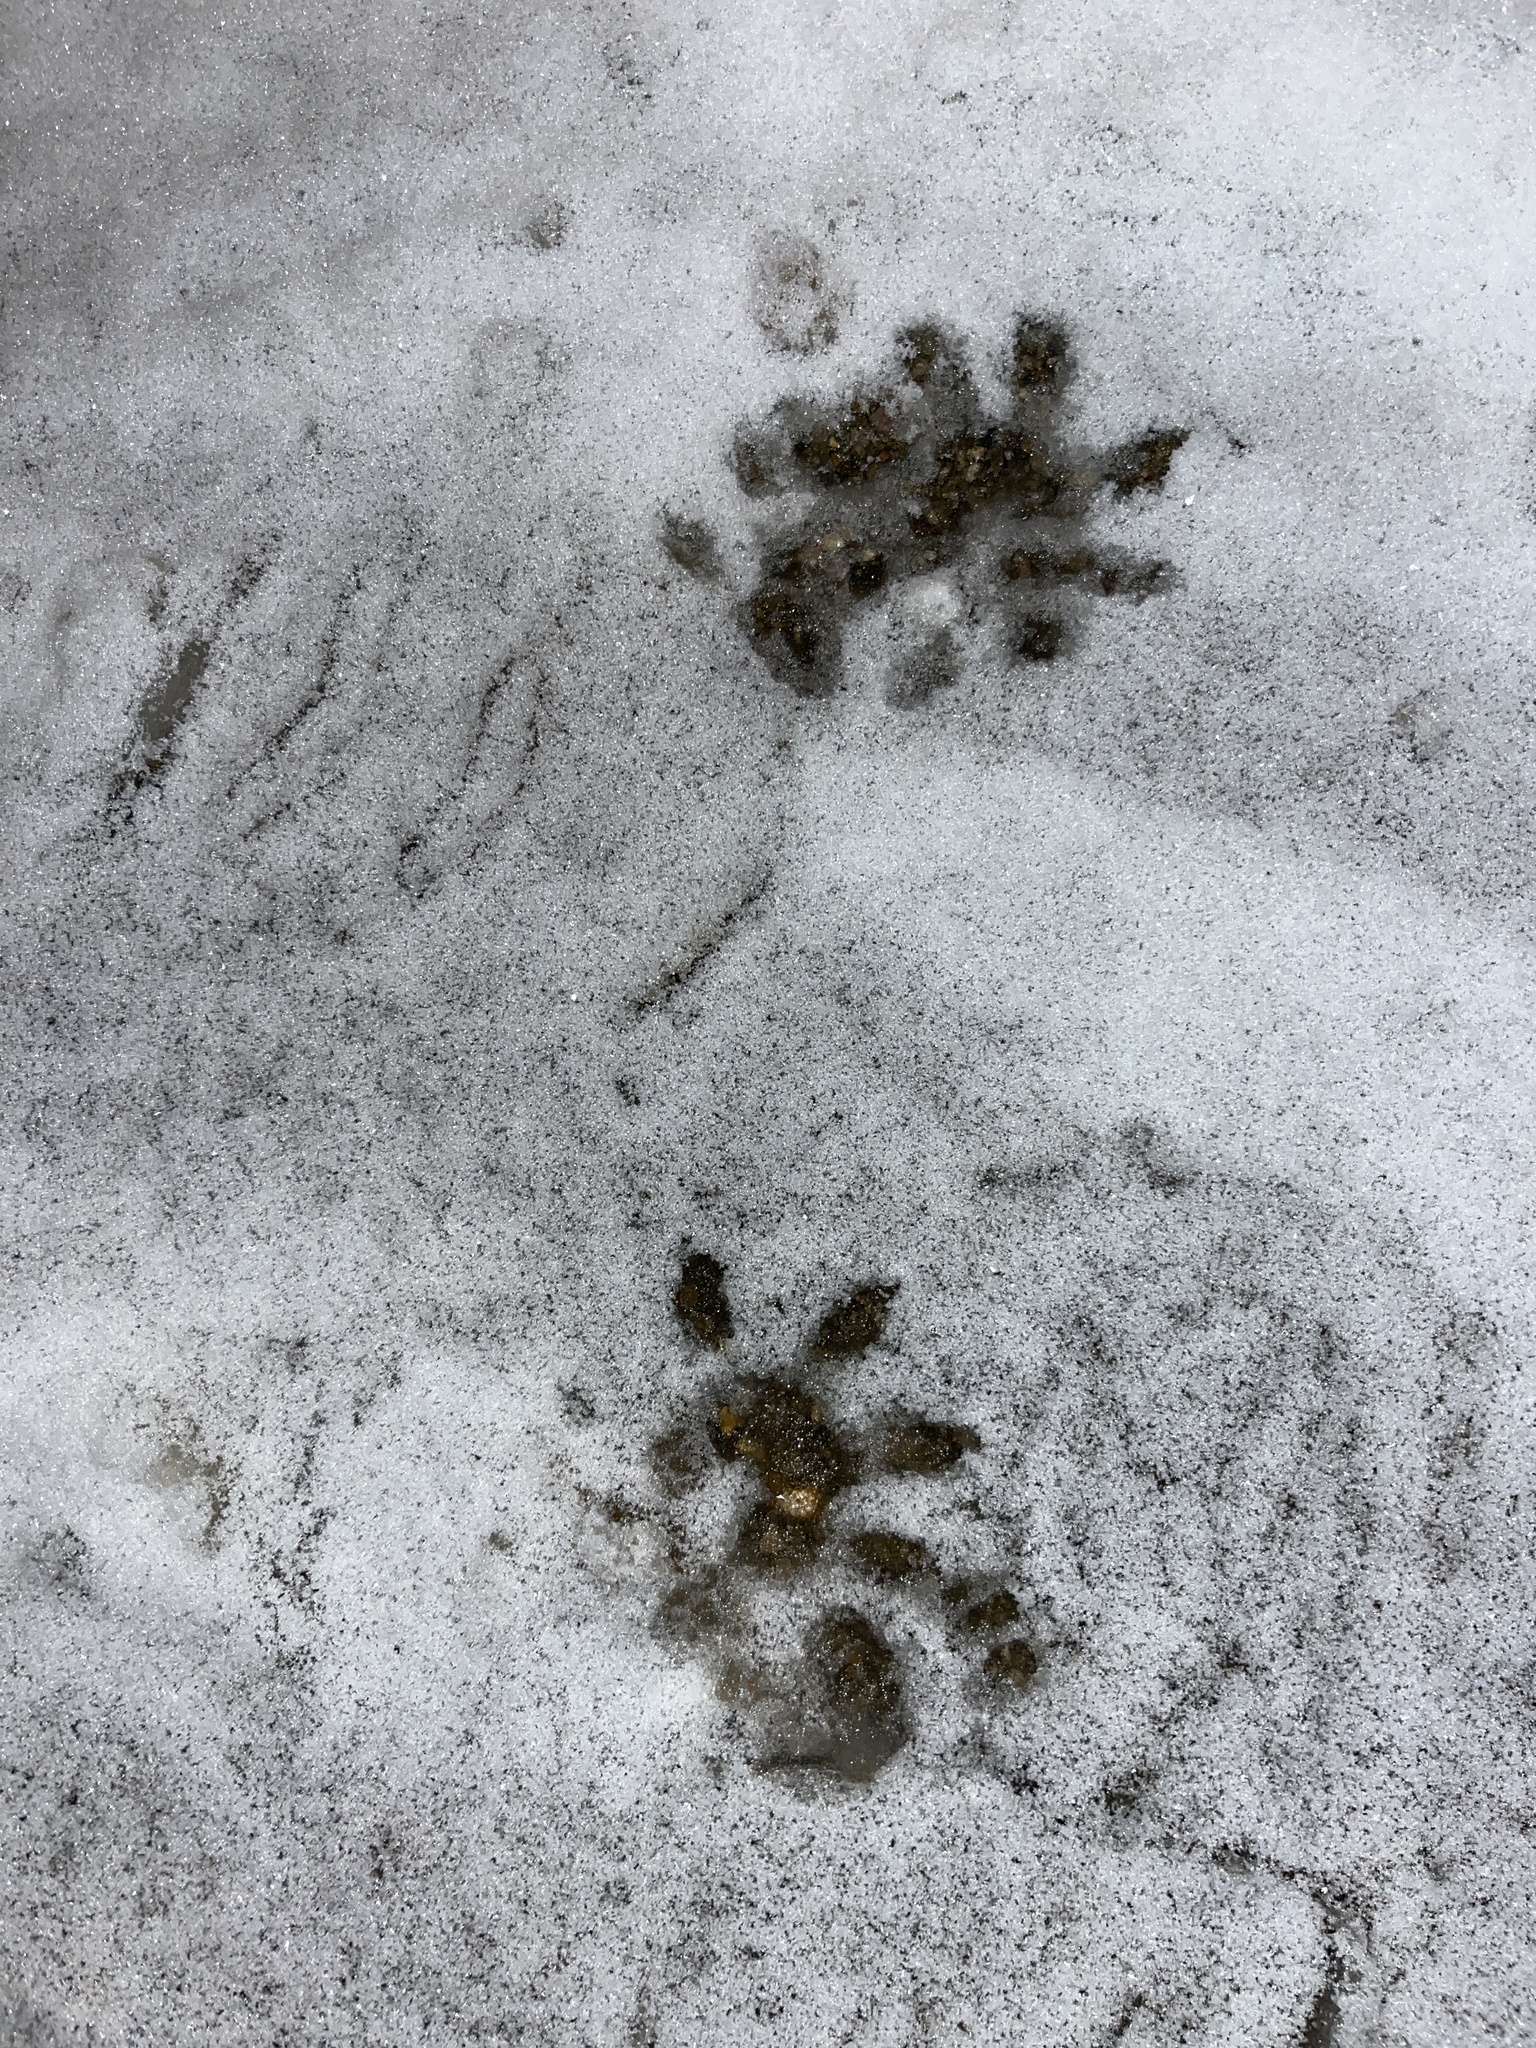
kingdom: Animalia
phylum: Chordata
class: Mammalia
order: Didelphimorphia
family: Didelphidae
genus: Didelphis
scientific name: Didelphis virginiana
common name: Virginia opossum
